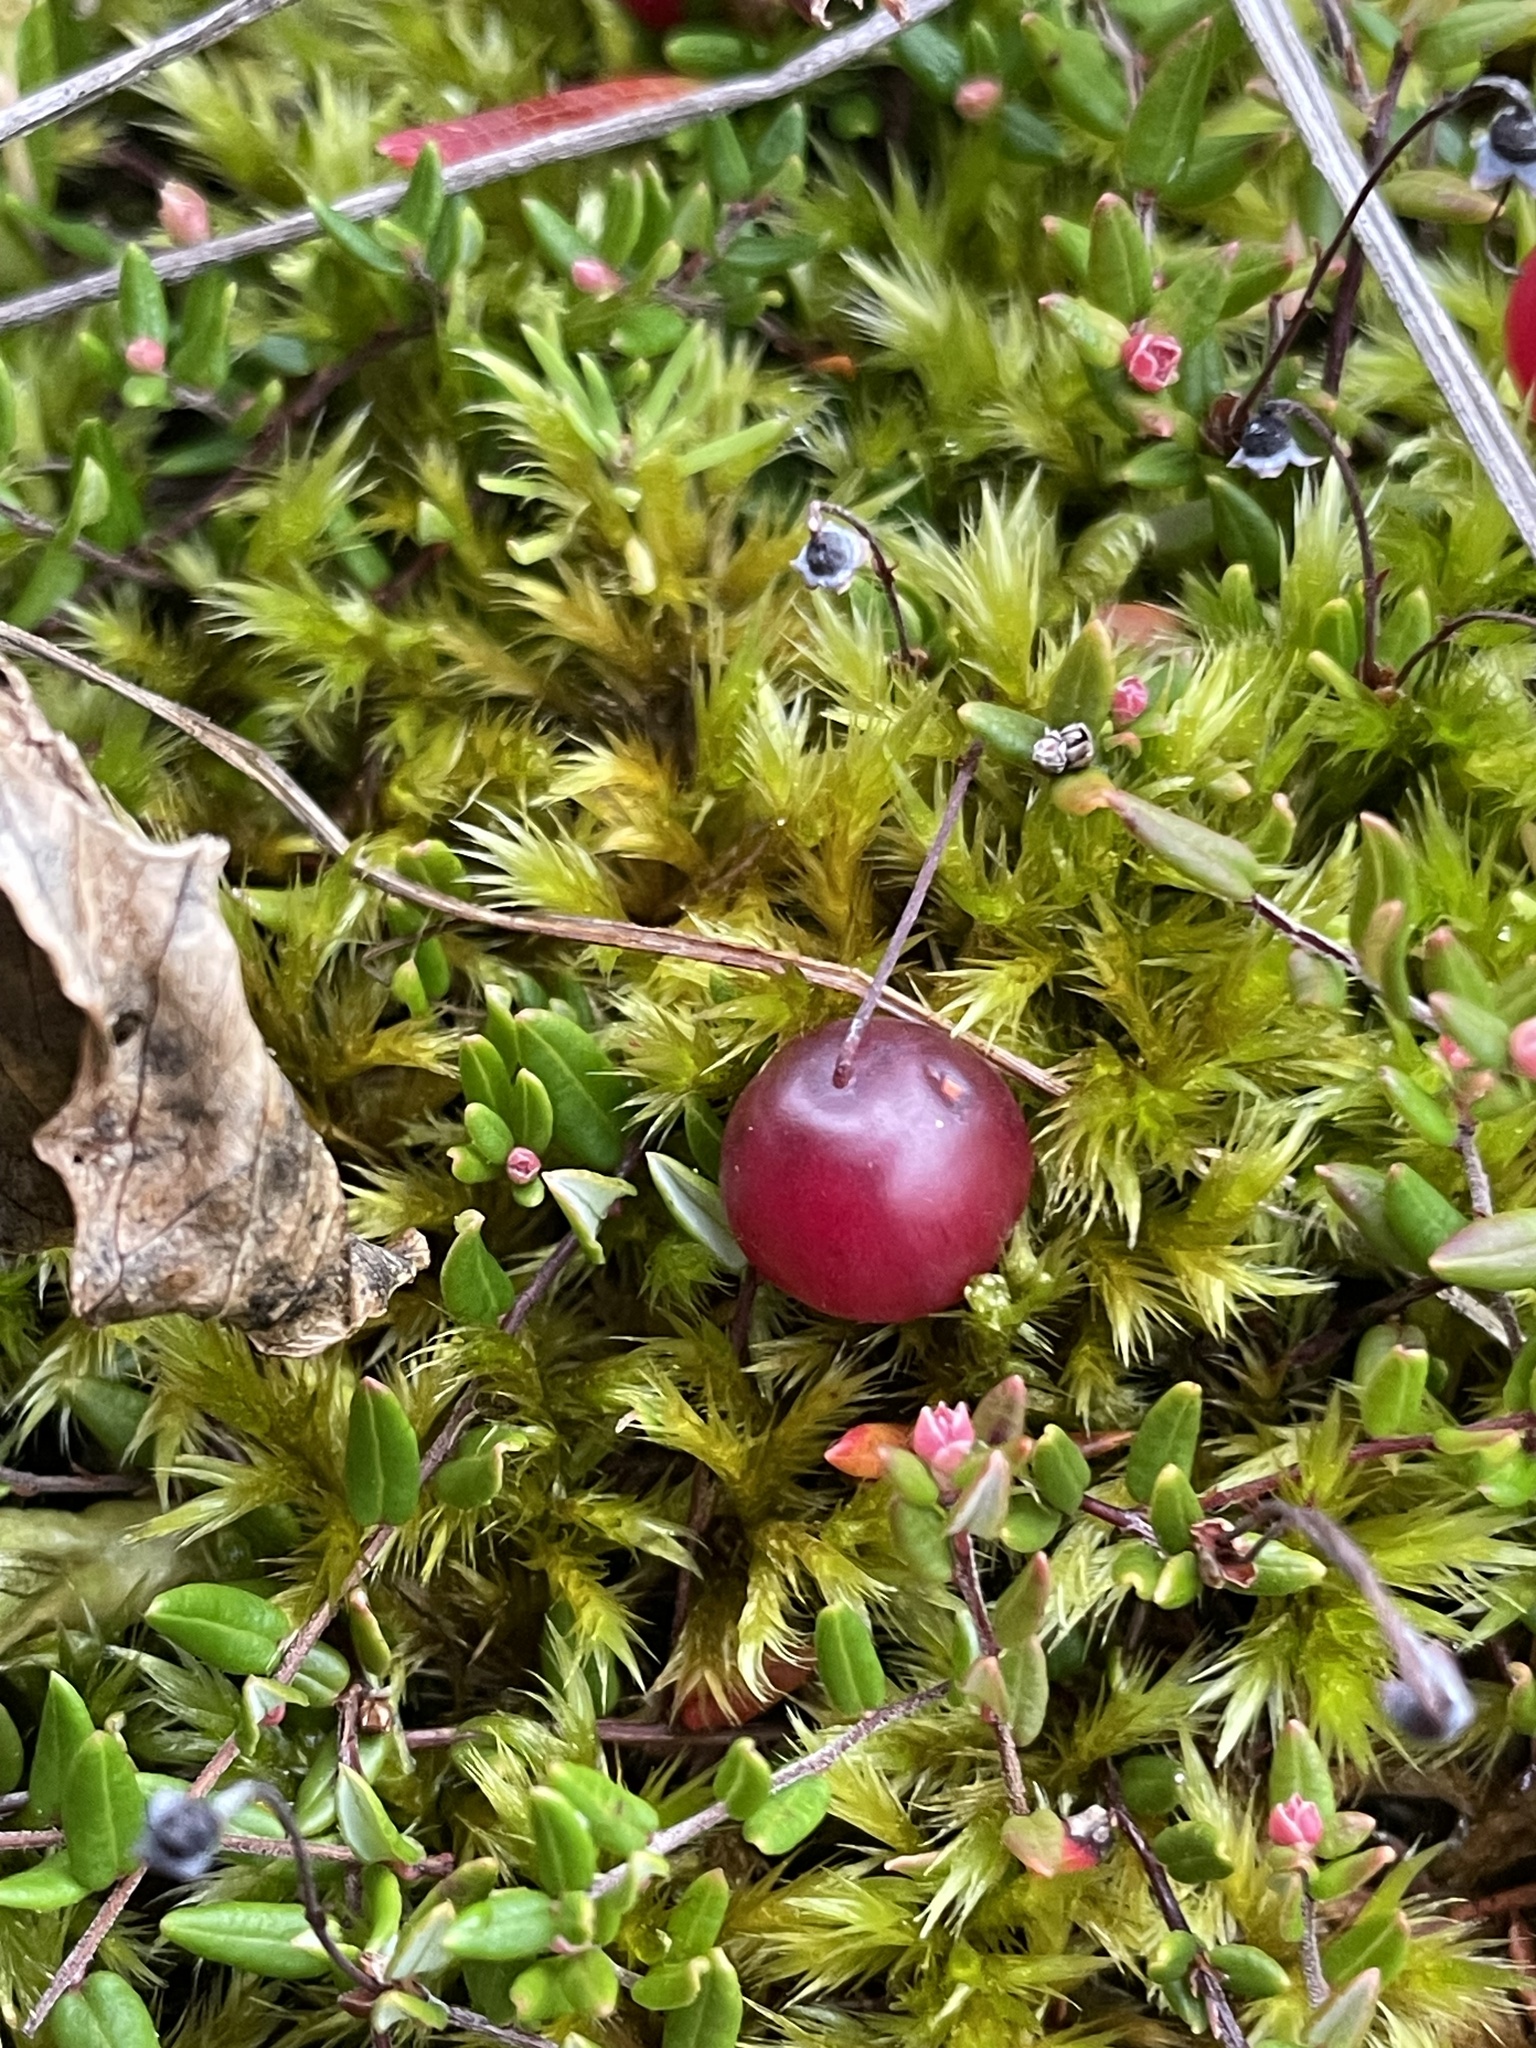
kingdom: Plantae
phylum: Tracheophyta
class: Magnoliopsida
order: Ericales
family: Ericaceae
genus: Vaccinium
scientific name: Vaccinium oxycoccos
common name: Cranberry
